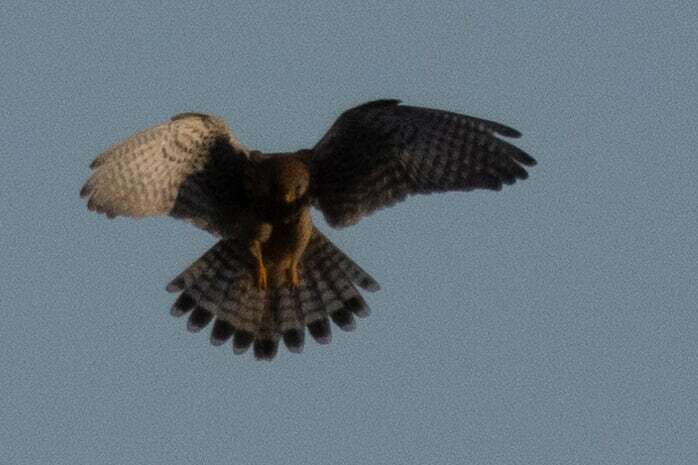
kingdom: Animalia
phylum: Chordata
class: Aves
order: Falconiformes
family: Falconidae
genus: Falco
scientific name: Falco tinnunculus
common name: Common kestrel
